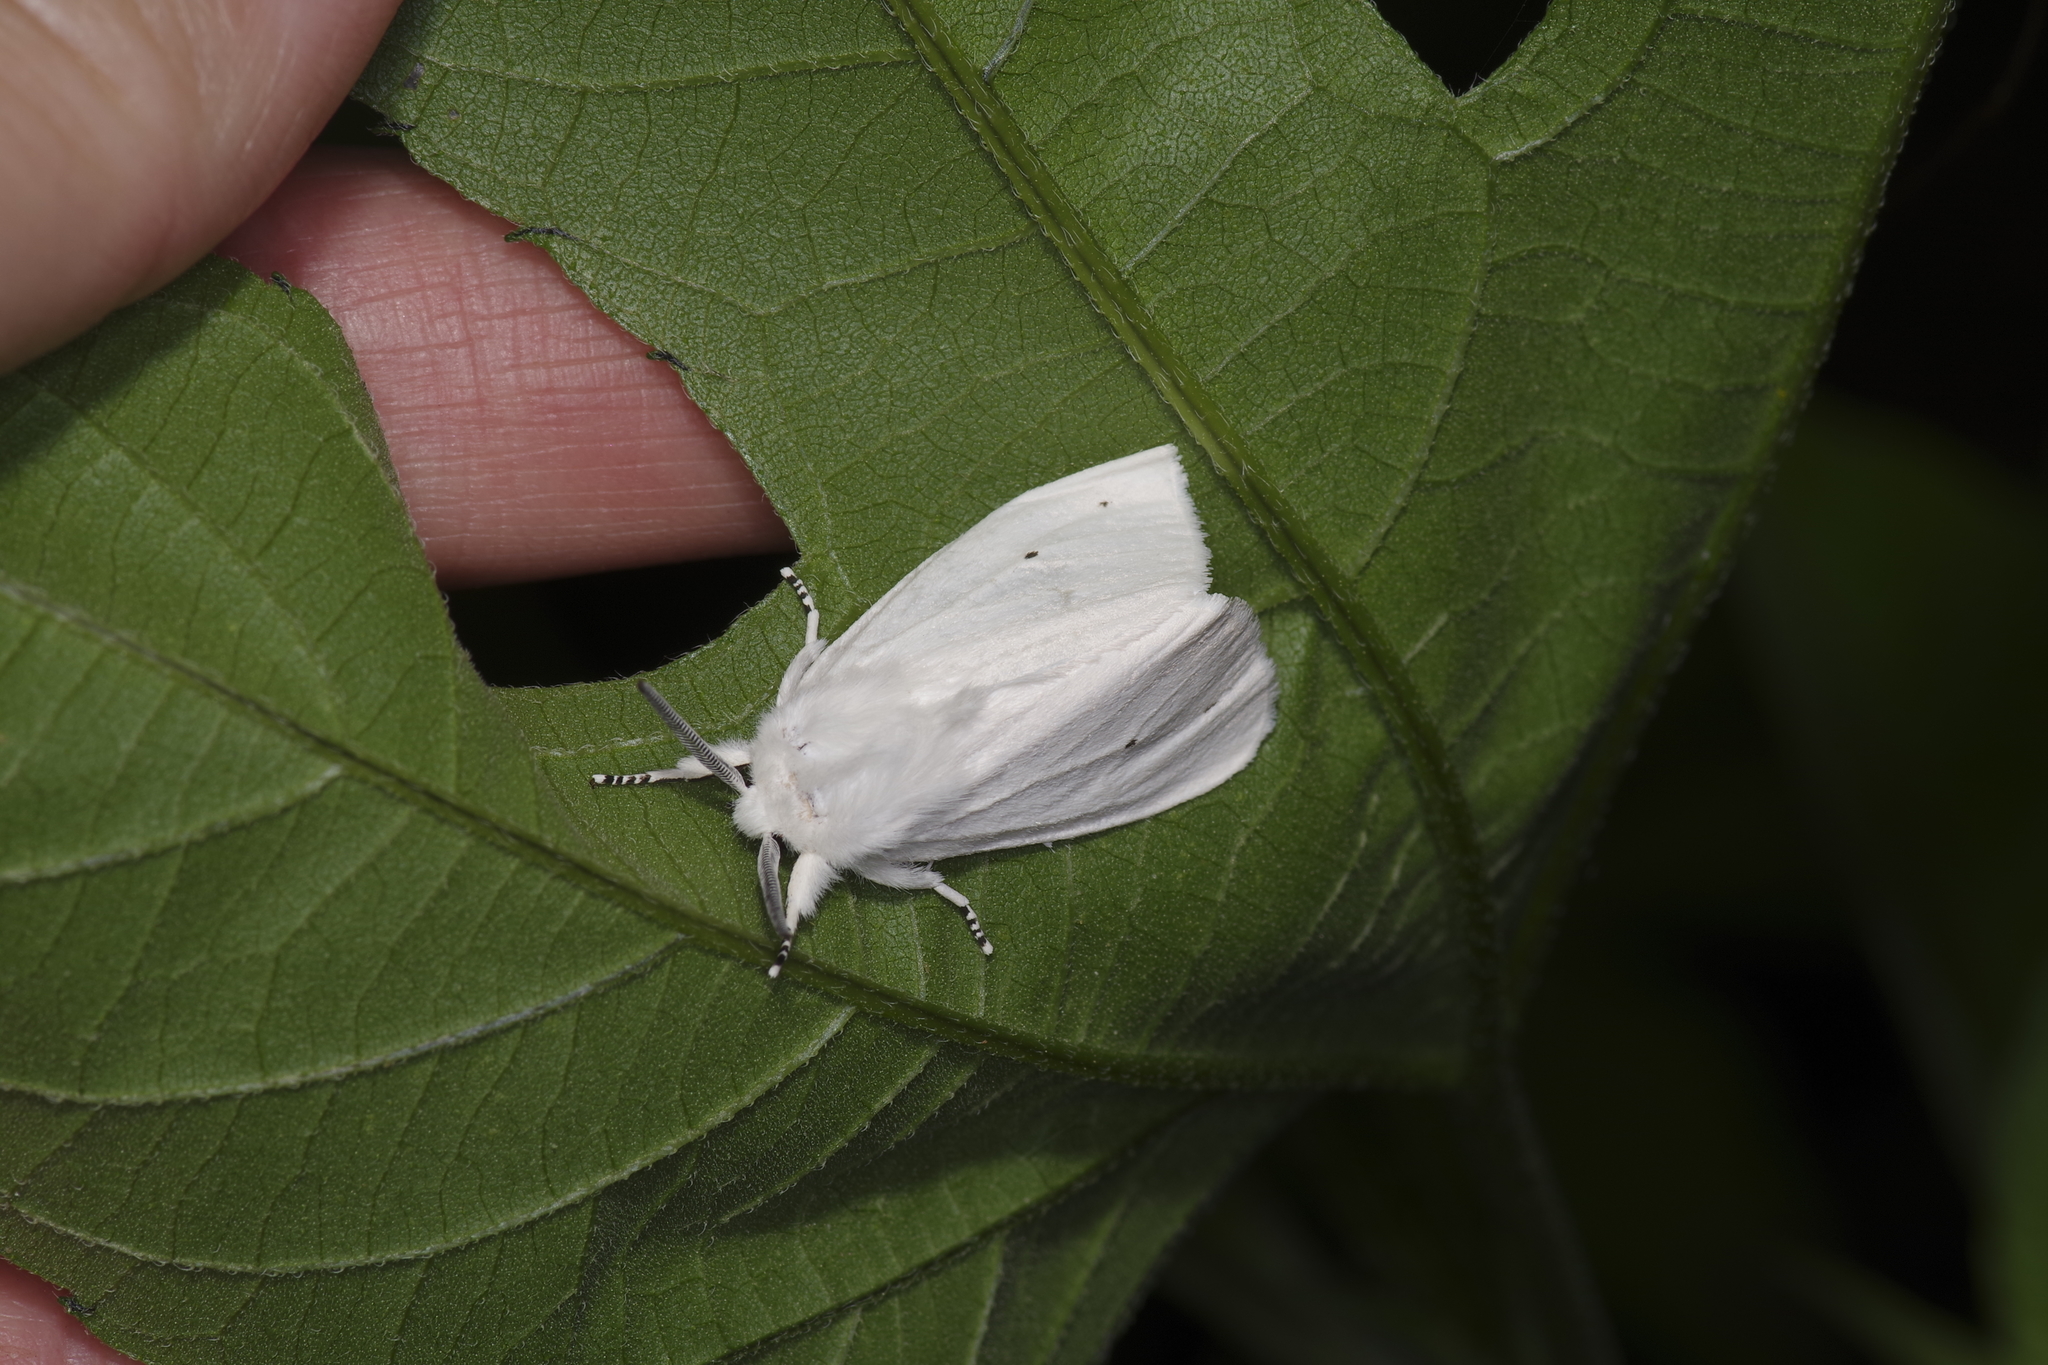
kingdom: Animalia
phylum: Arthropoda
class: Insecta
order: Lepidoptera
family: Erebidae
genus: Spilosoma
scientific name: Spilosoma virginica
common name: Virginia tiger moth
